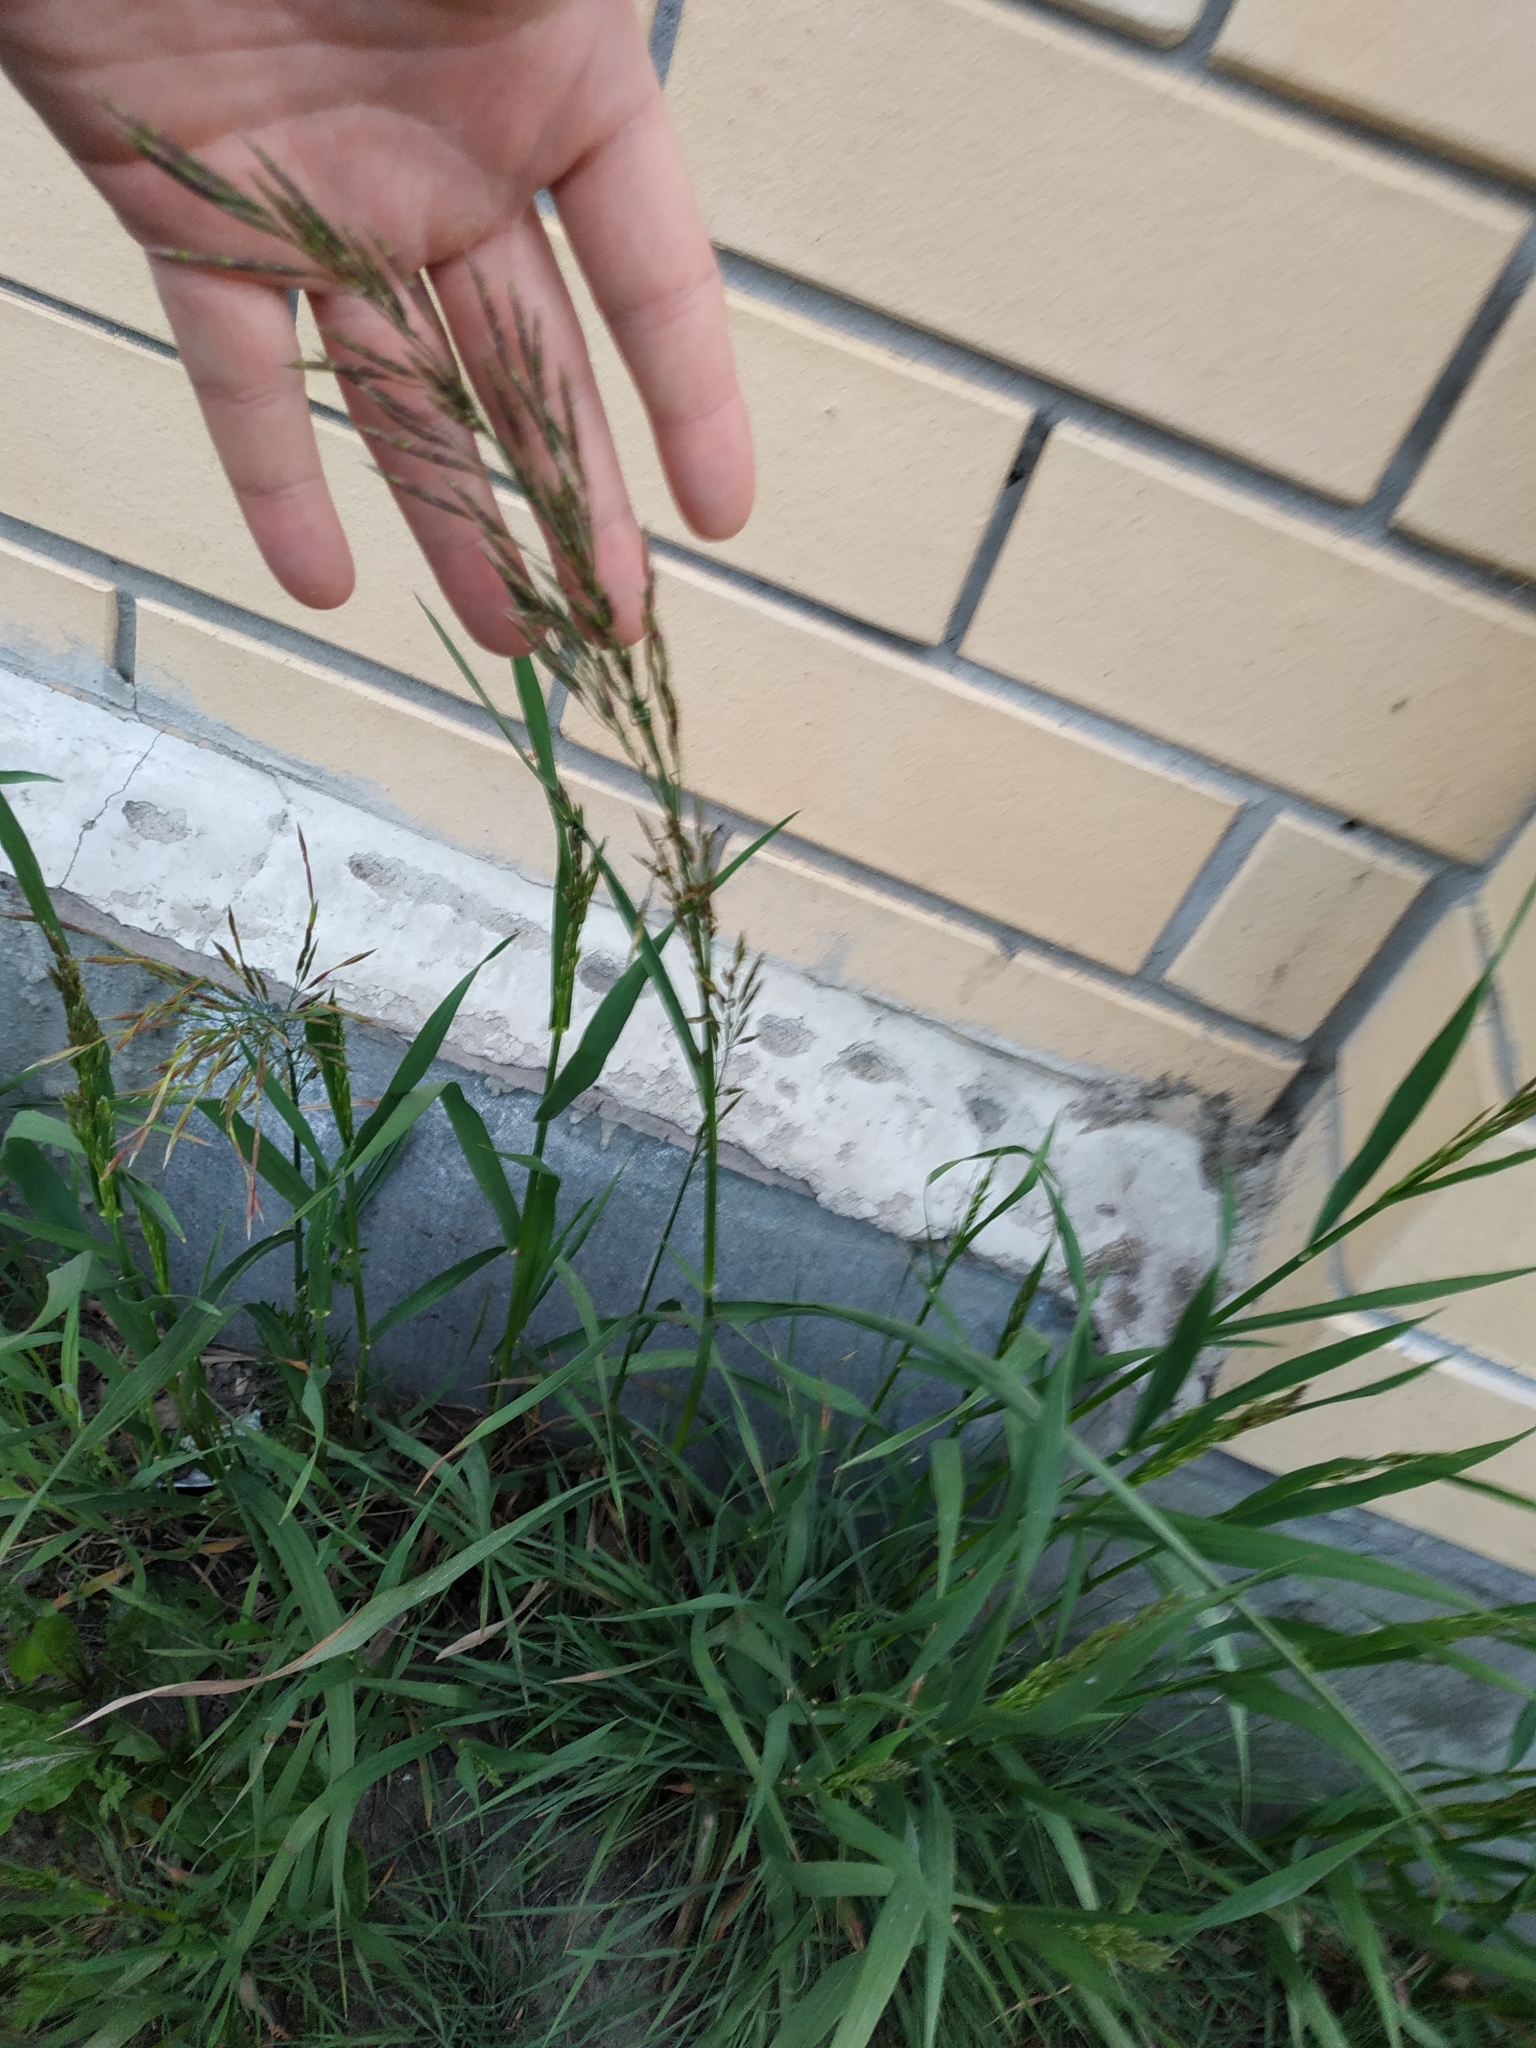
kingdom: Plantae
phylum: Tracheophyta
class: Liliopsida
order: Poales
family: Poaceae
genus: Bromus
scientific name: Bromus inermis
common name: Smooth brome
